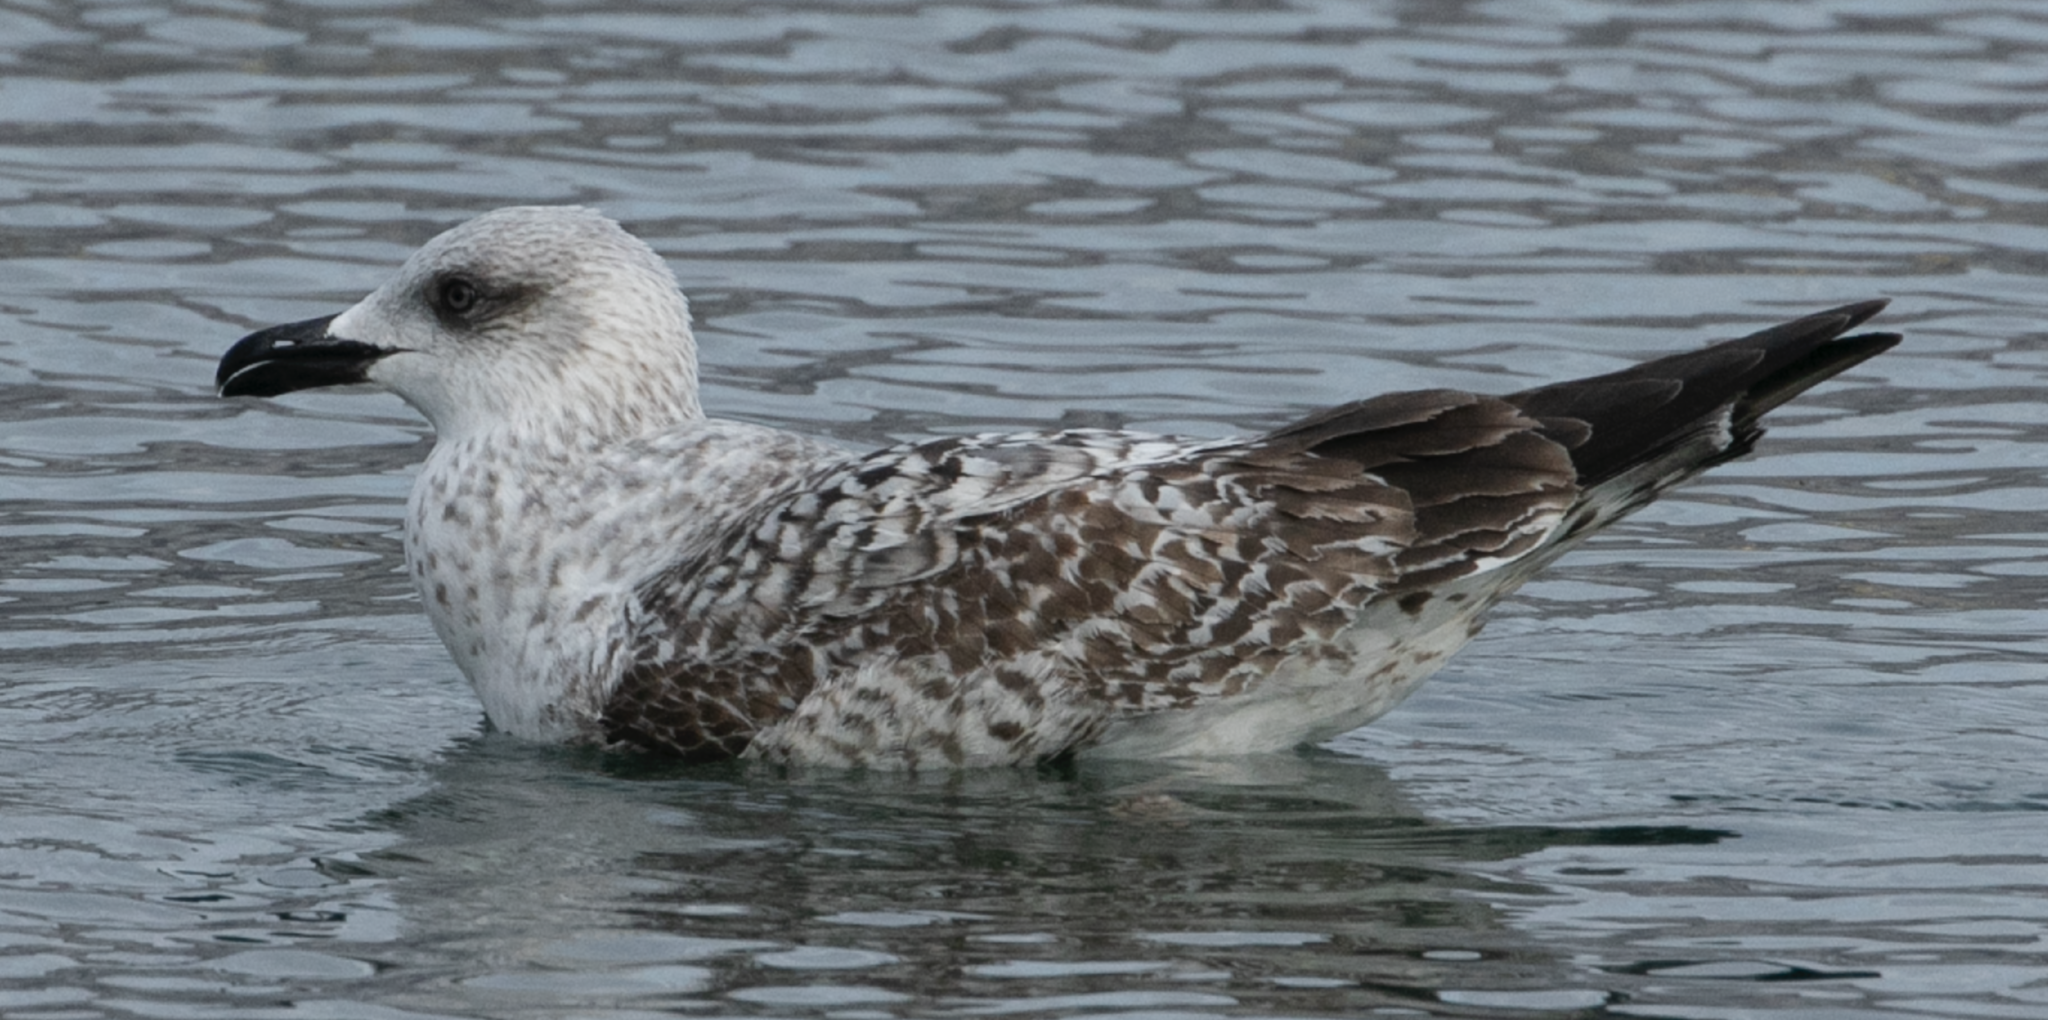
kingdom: Animalia
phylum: Chordata
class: Aves
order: Charadriiformes
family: Laridae
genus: Larus
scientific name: Larus michahellis
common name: Yellow-legged gull
